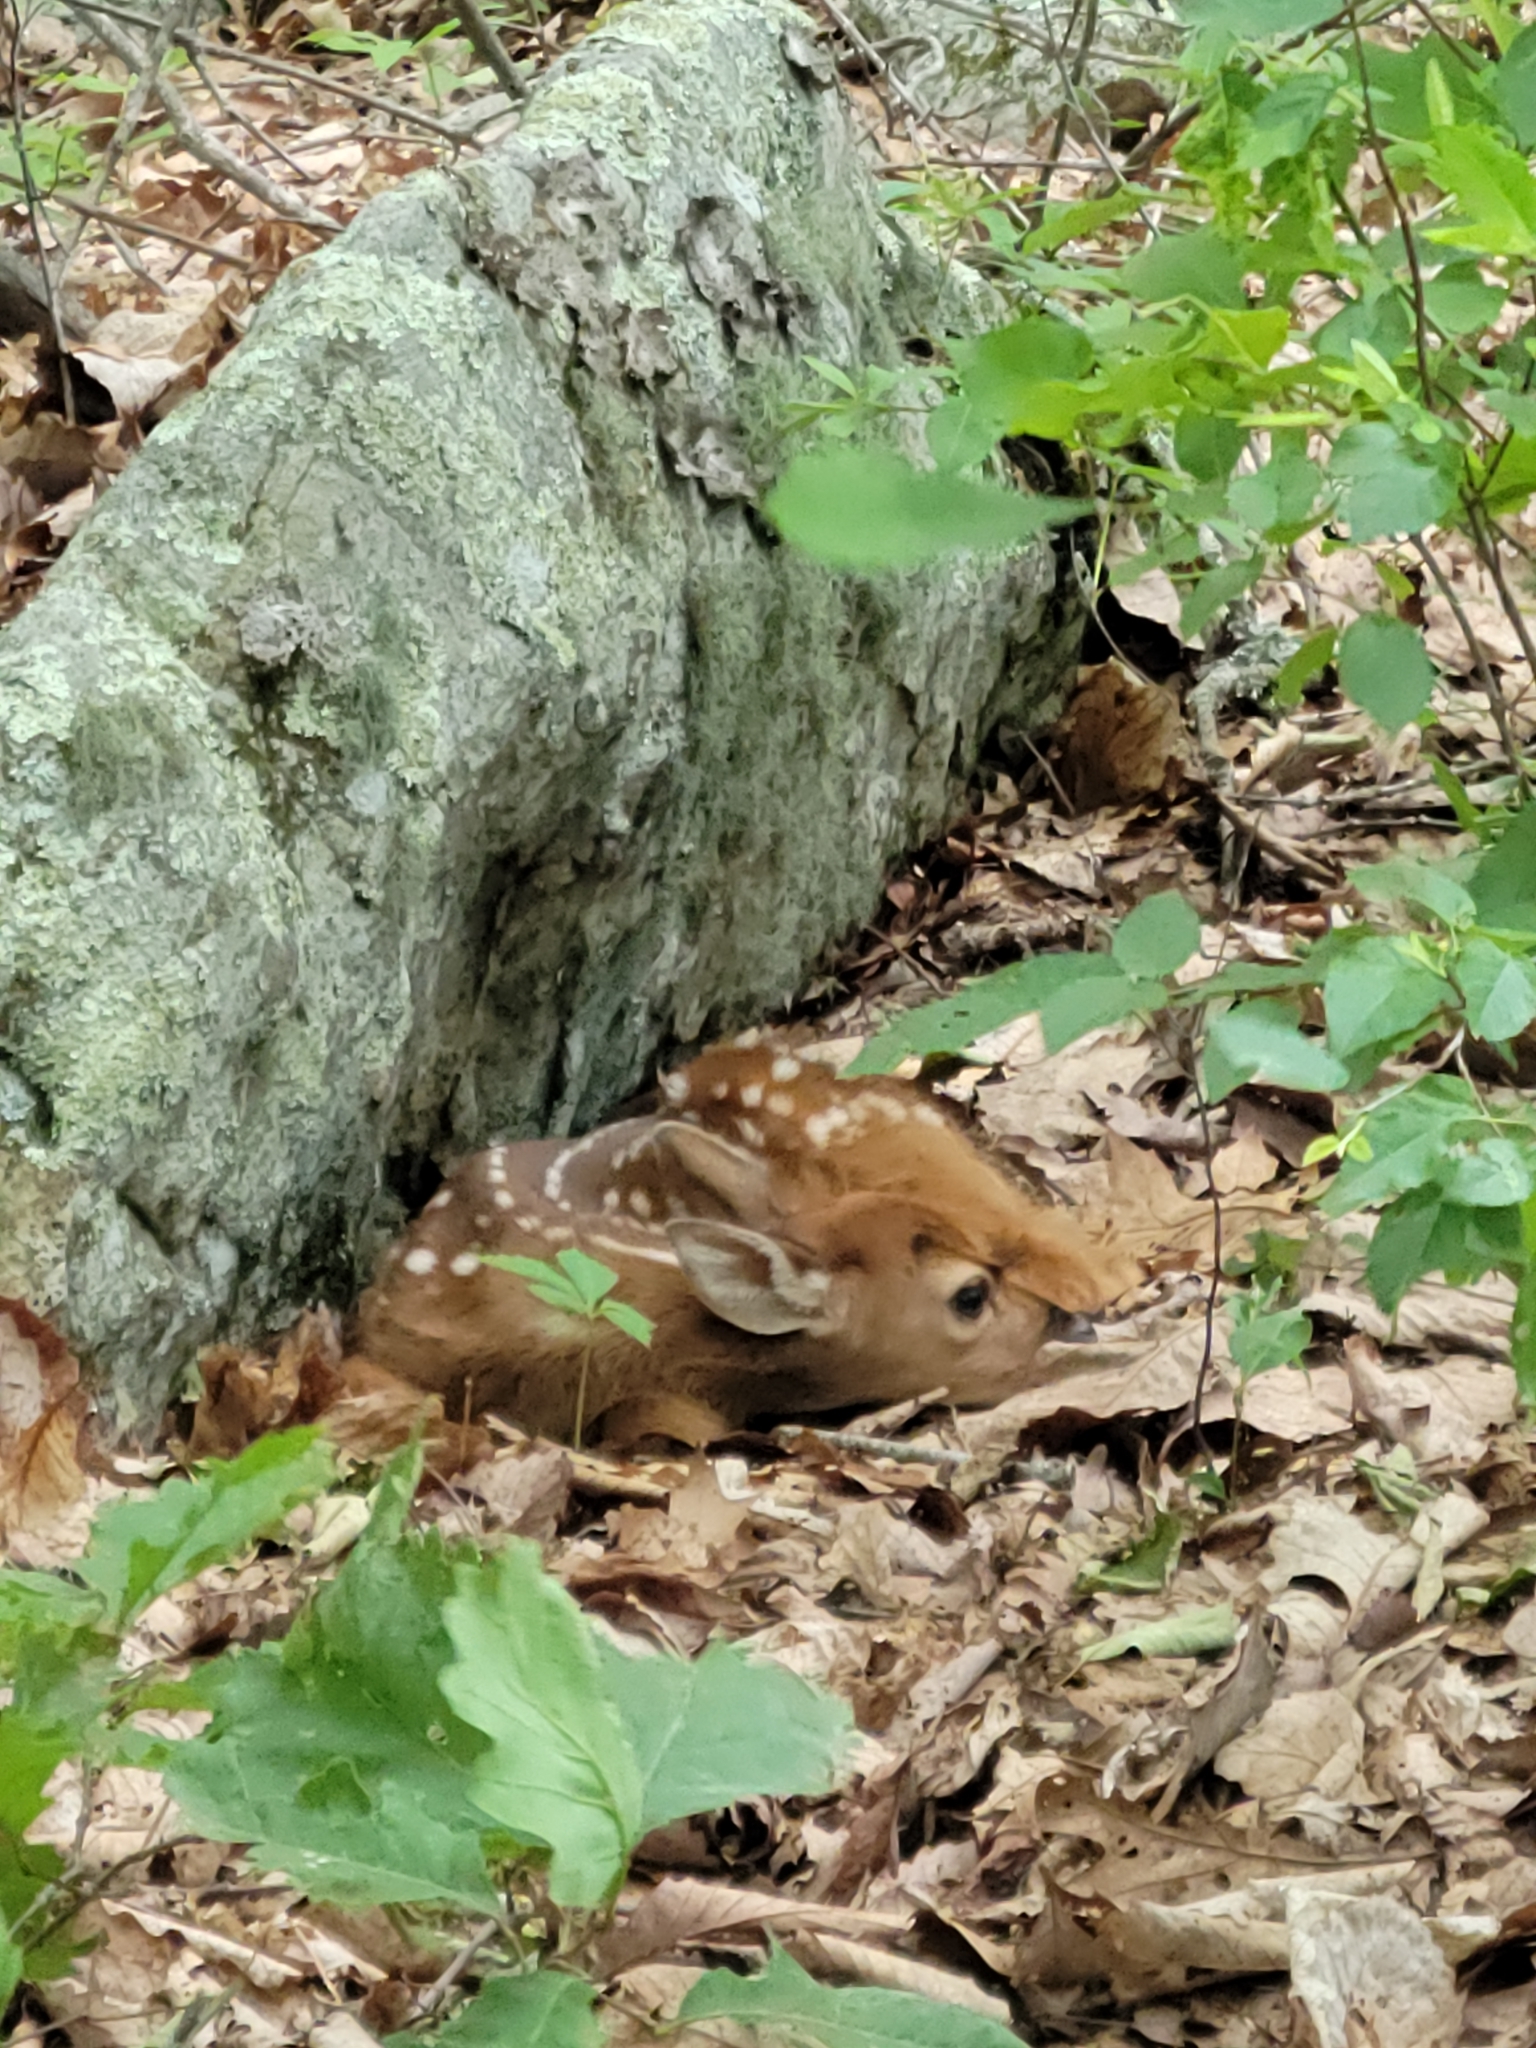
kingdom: Animalia
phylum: Chordata
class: Mammalia
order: Artiodactyla
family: Cervidae
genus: Odocoileus
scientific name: Odocoileus virginianus
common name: White-tailed deer
